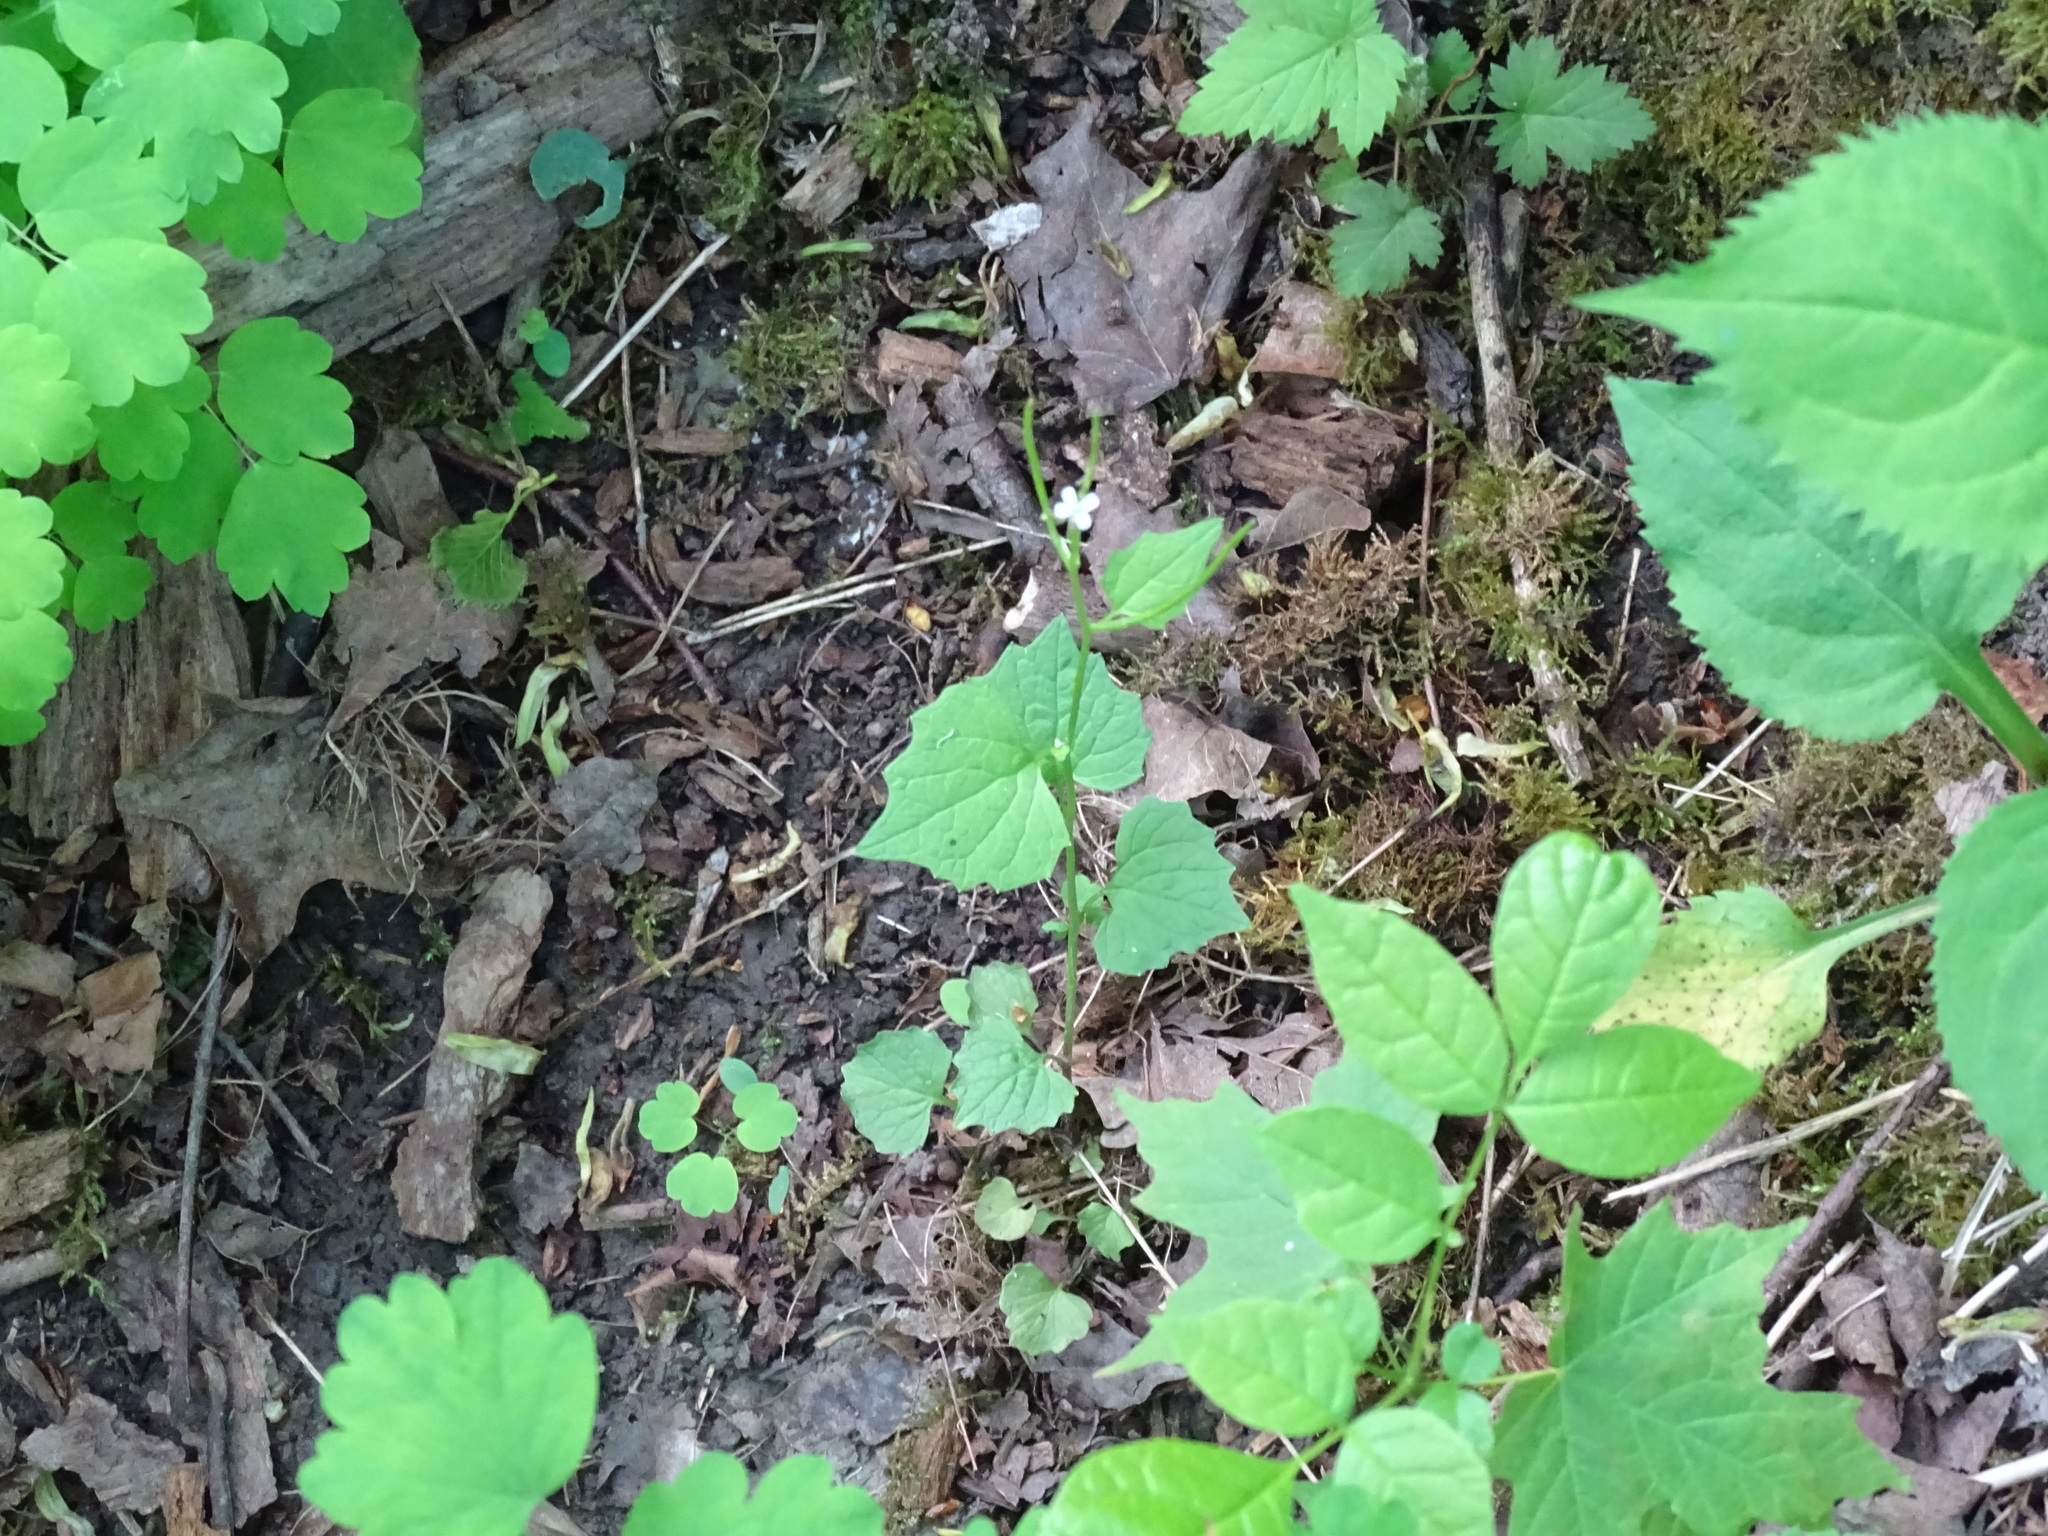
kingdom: Plantae
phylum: Tracheophyta
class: Magnoliopsida
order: Brassicales
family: Brassicaceae
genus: Alliaria
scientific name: Alliaria petiolata
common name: Garlic mustard
